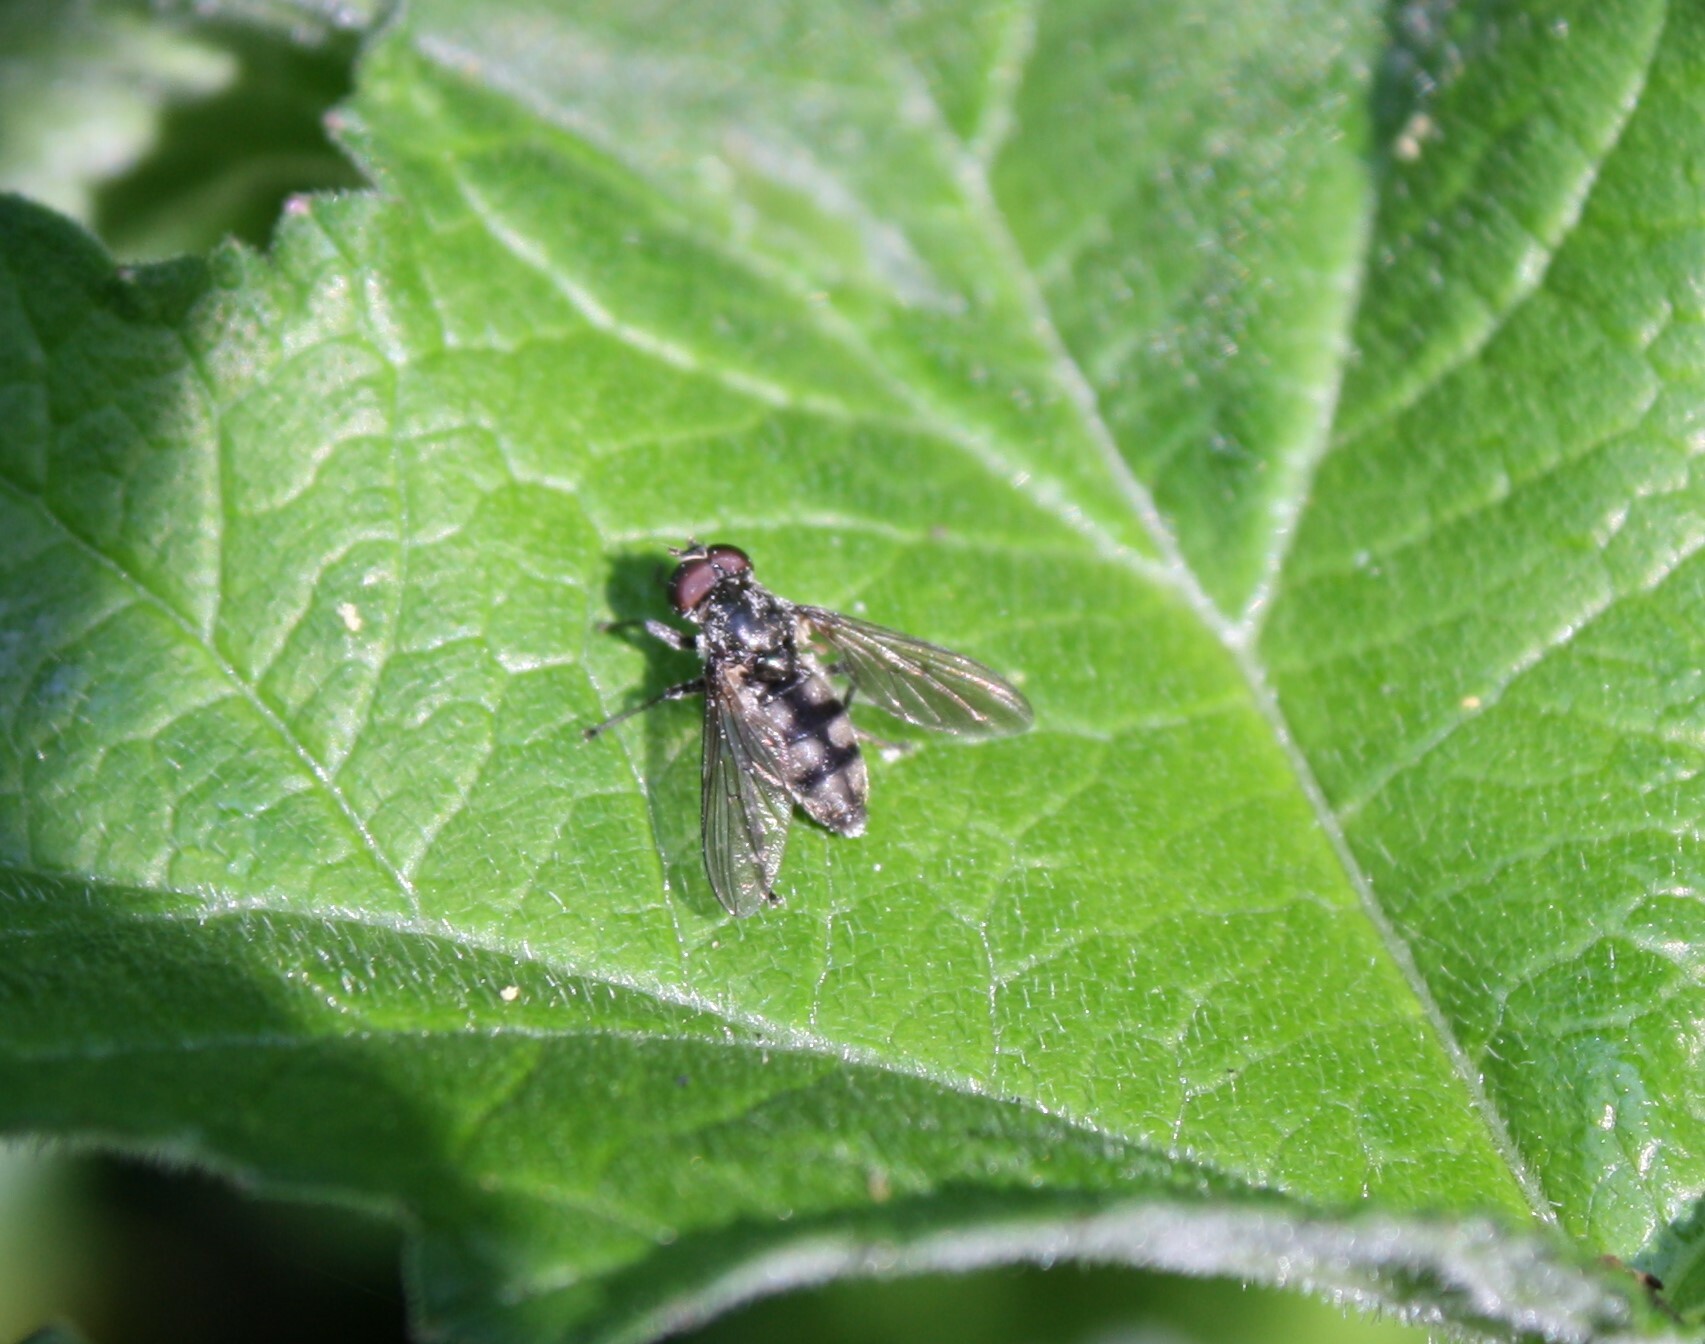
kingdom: Animalia
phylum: Arthropoda
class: Insecta
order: Diptera
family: Syrphidae
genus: Portevinia
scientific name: Portevinia maculata
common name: Ramson's hoverfly
